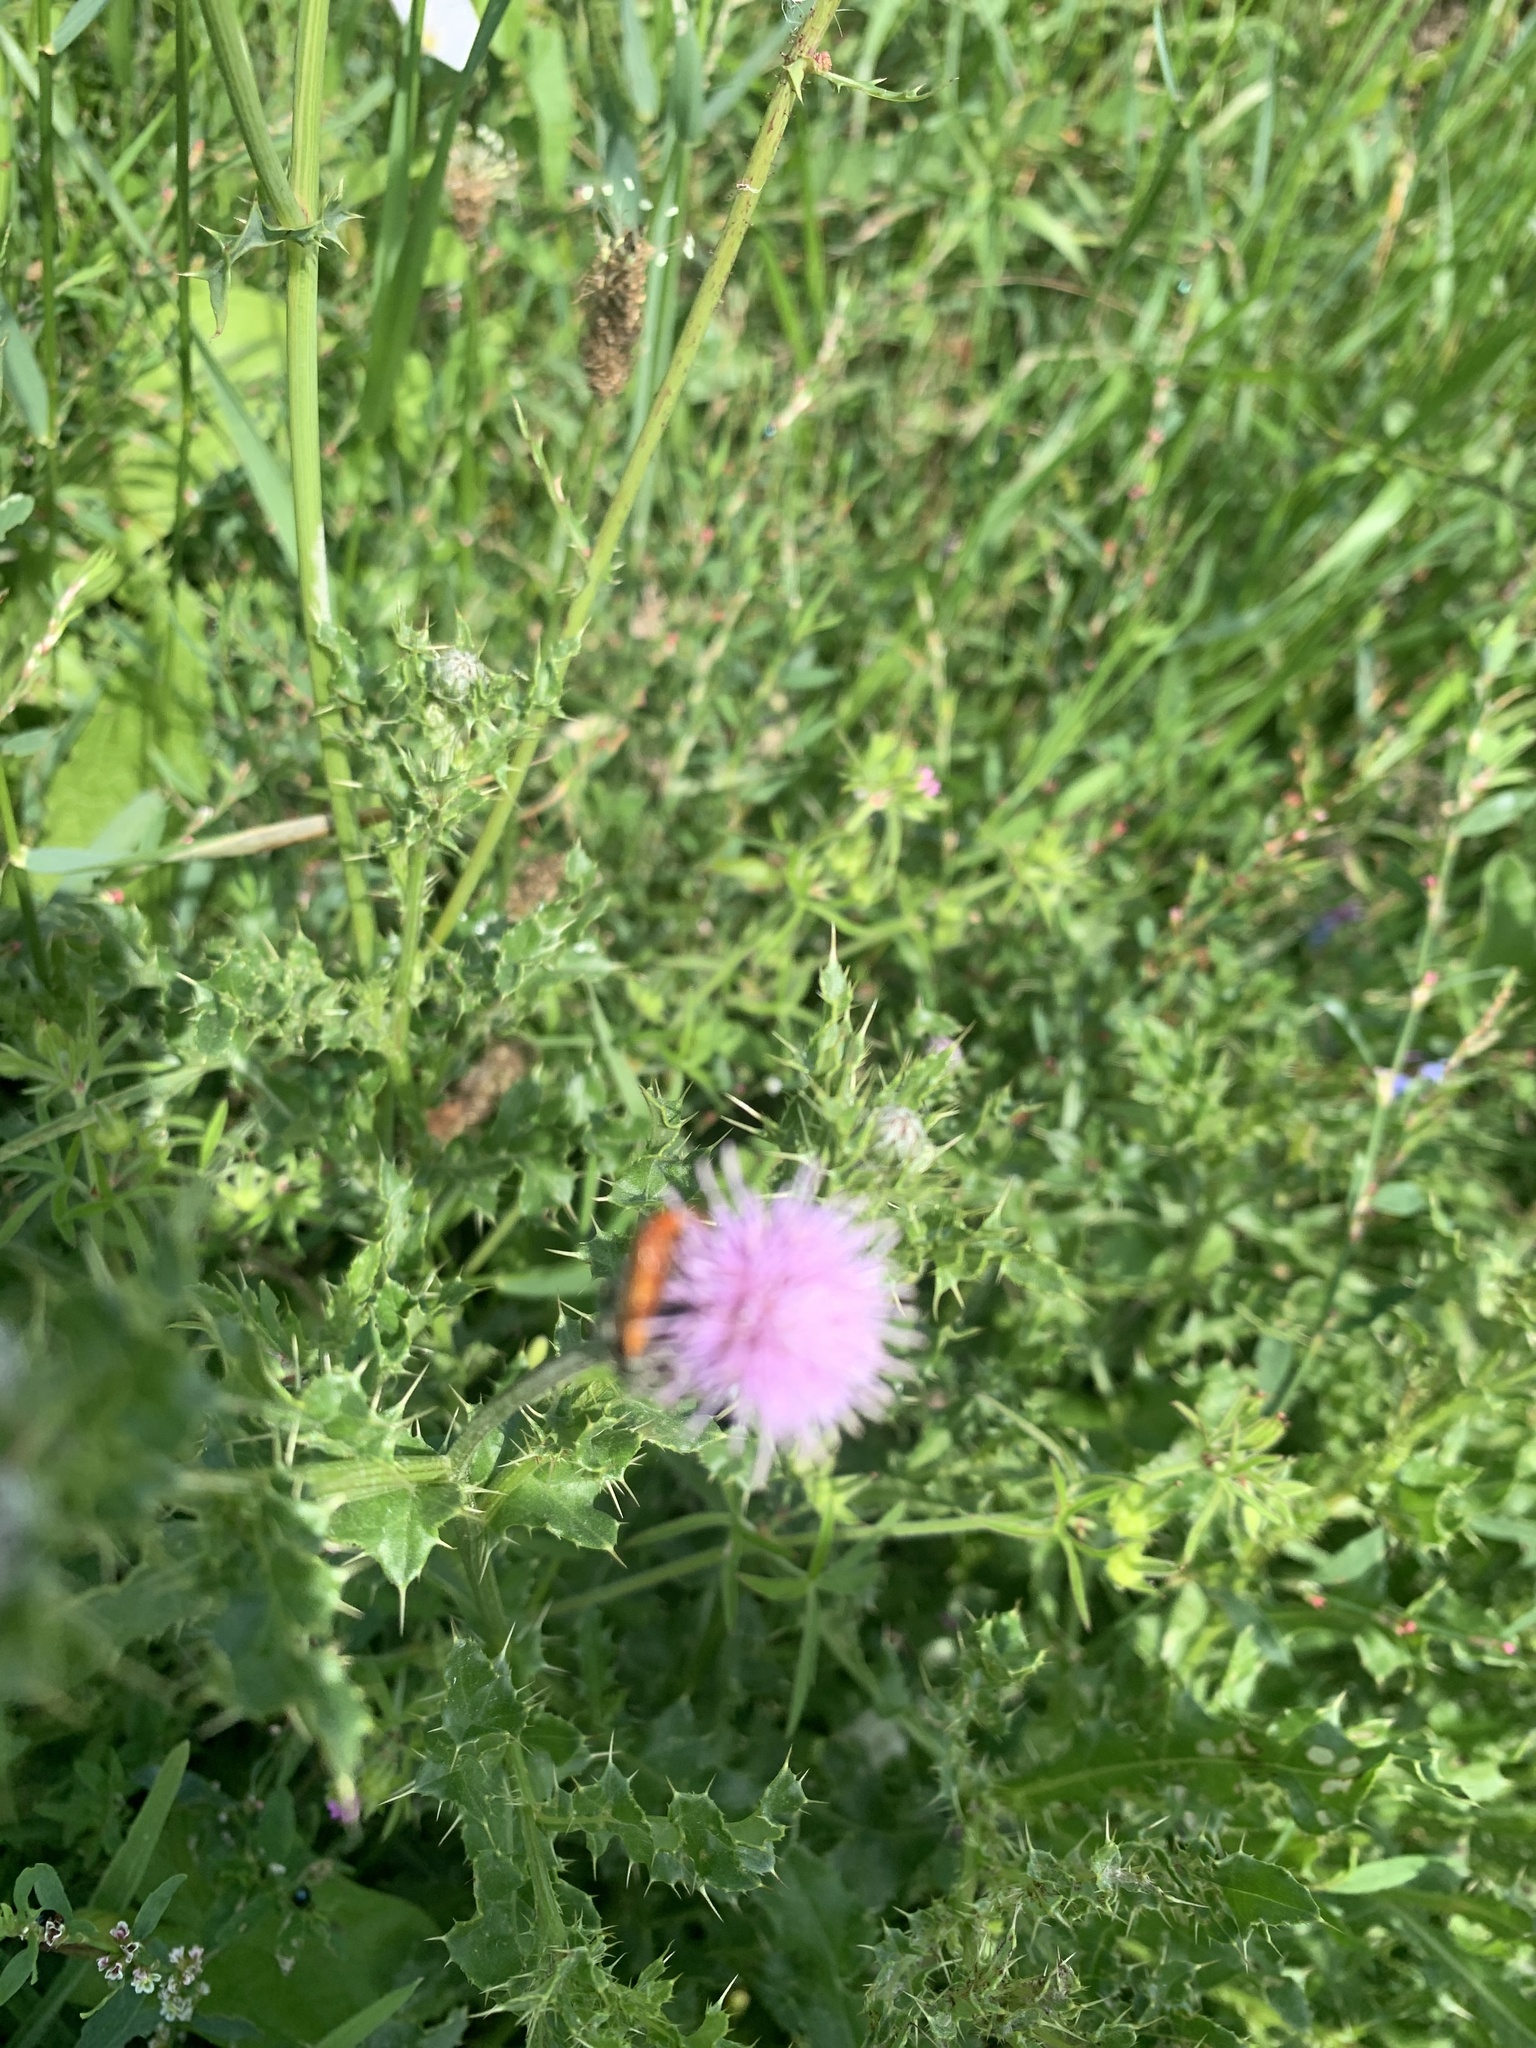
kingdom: Plantae
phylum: Tracheophyta
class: Magnoliopsida
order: Asterales
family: Asteraceae
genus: Cirsium
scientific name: Cirsium arvense
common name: Creeping thistle
